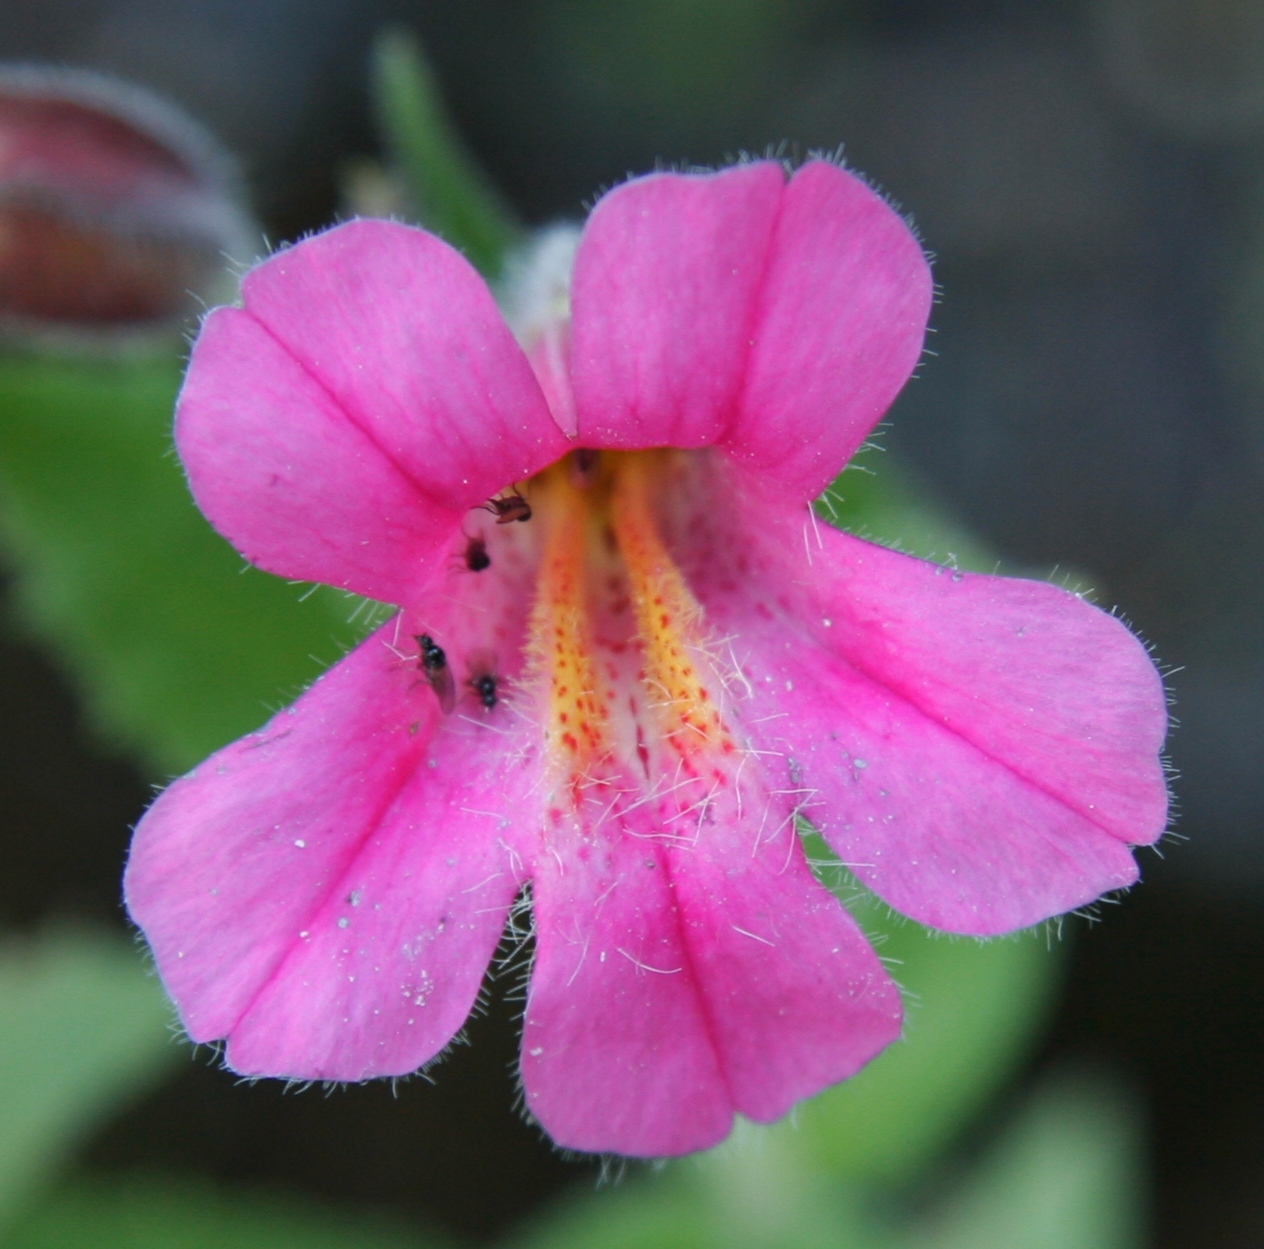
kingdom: Plantae
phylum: Tracheophyta
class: Magnoliopsida
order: Lamiales
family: Phrymaceae
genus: Erythranthe
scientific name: Erythranthe lewisii
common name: Lewis's monkey-flower
